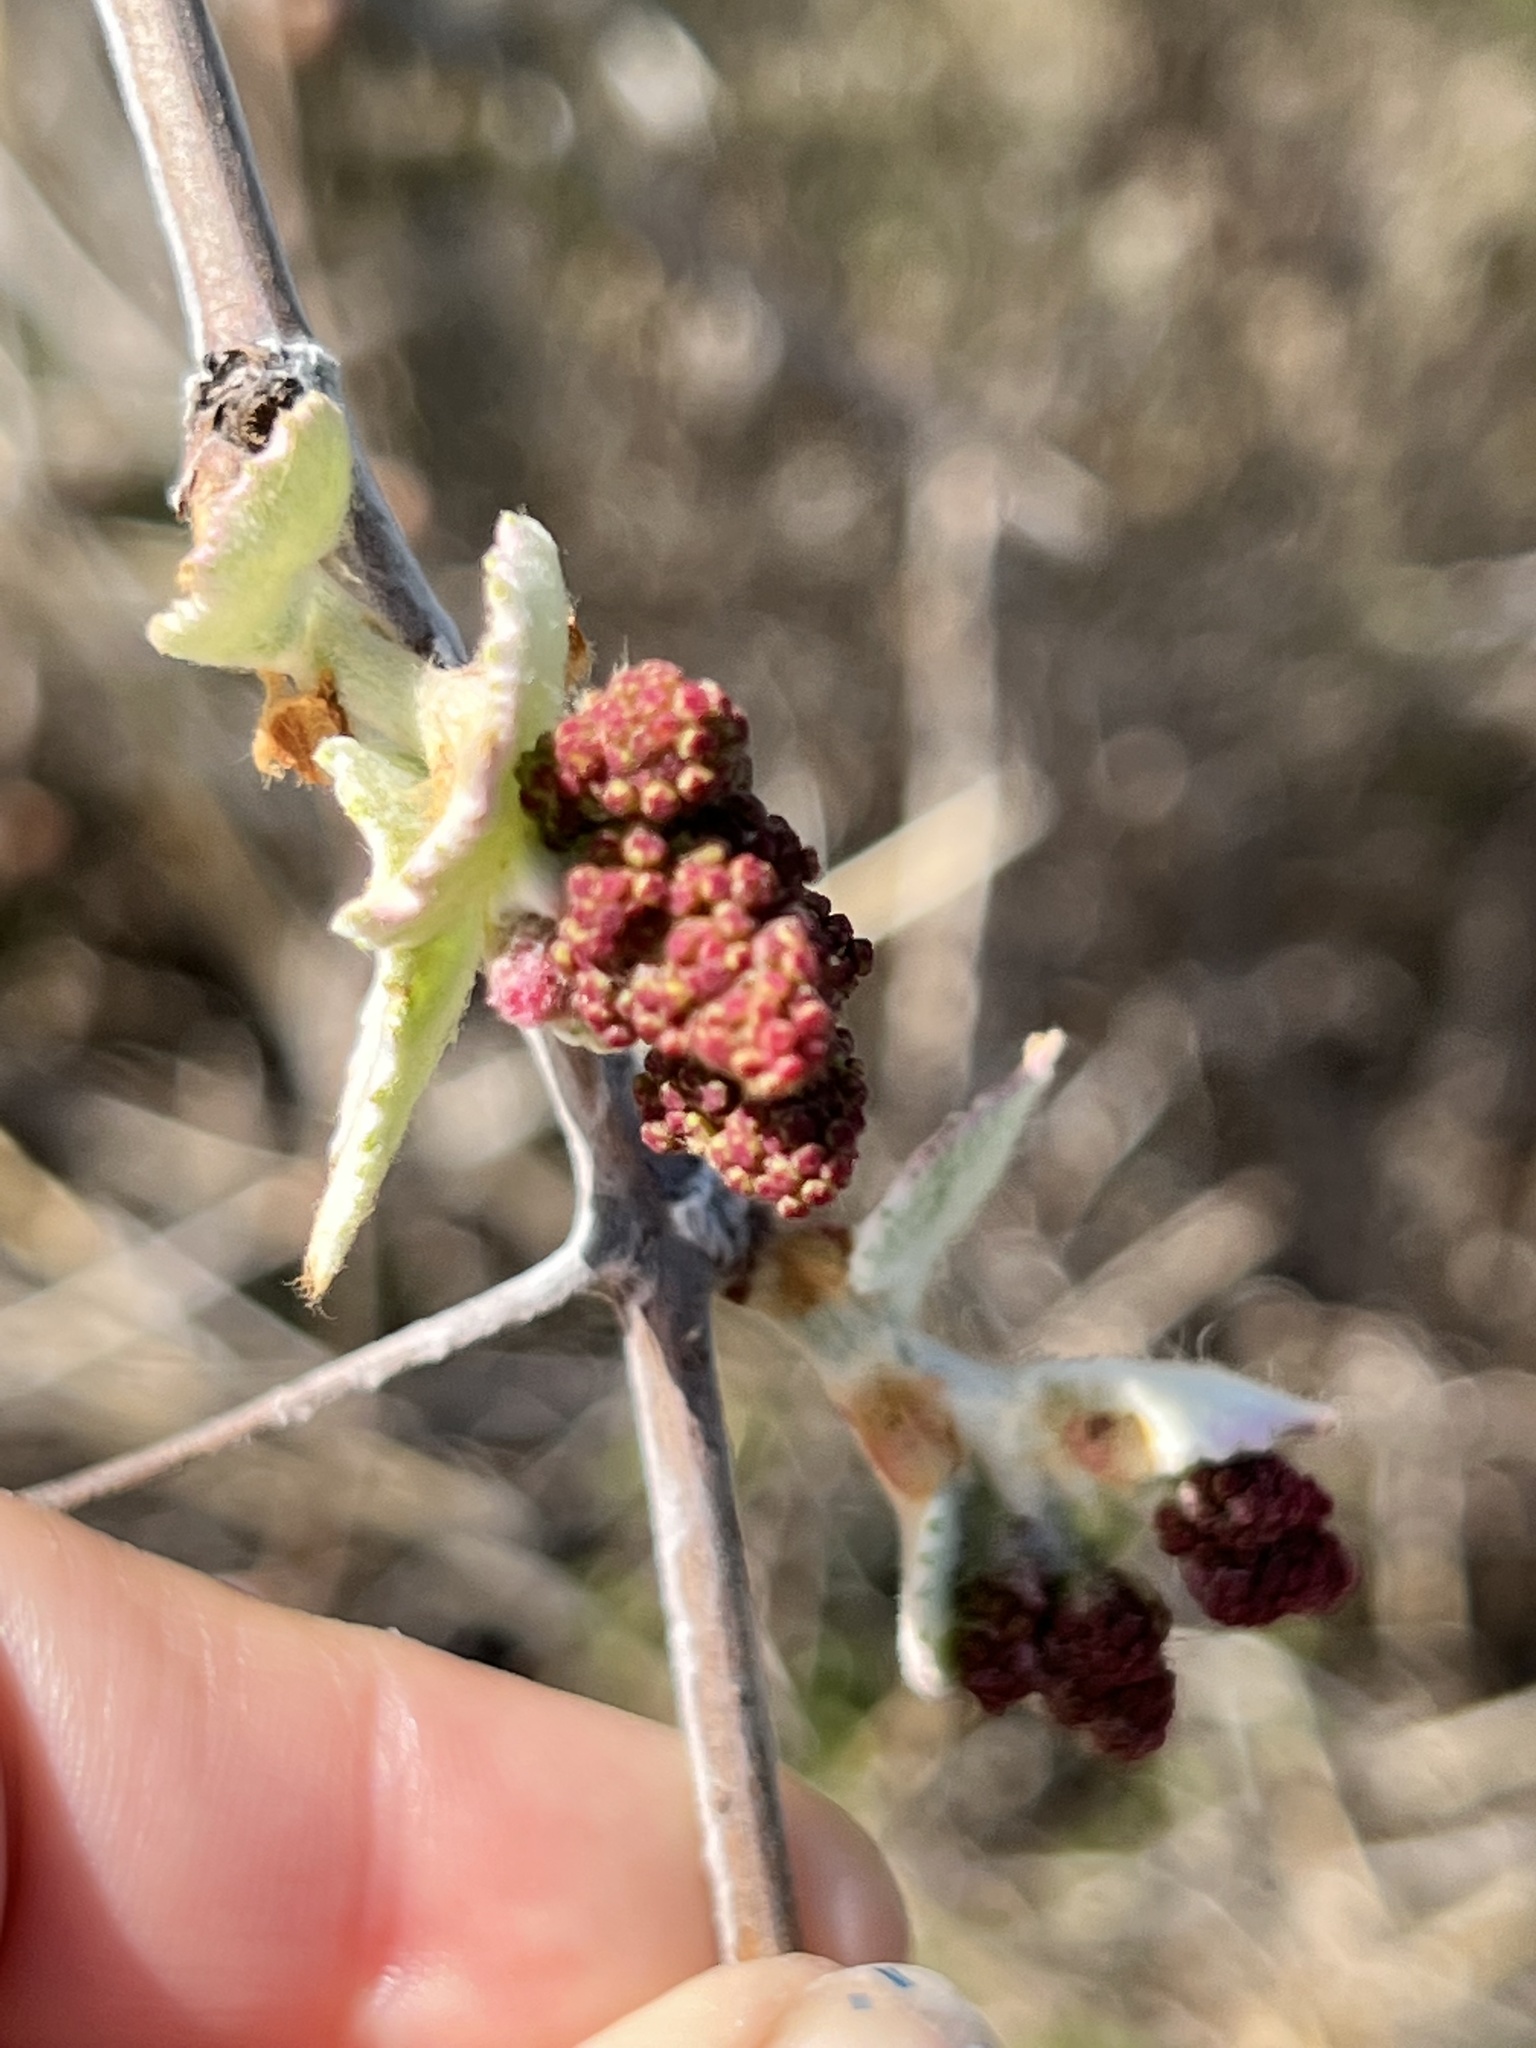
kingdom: Plantae
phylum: Tracheophyta
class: Magnoliopsida
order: Vitales
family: Vitaceae
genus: Vitis
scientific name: Vitis mustangensis
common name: Mustang grape
